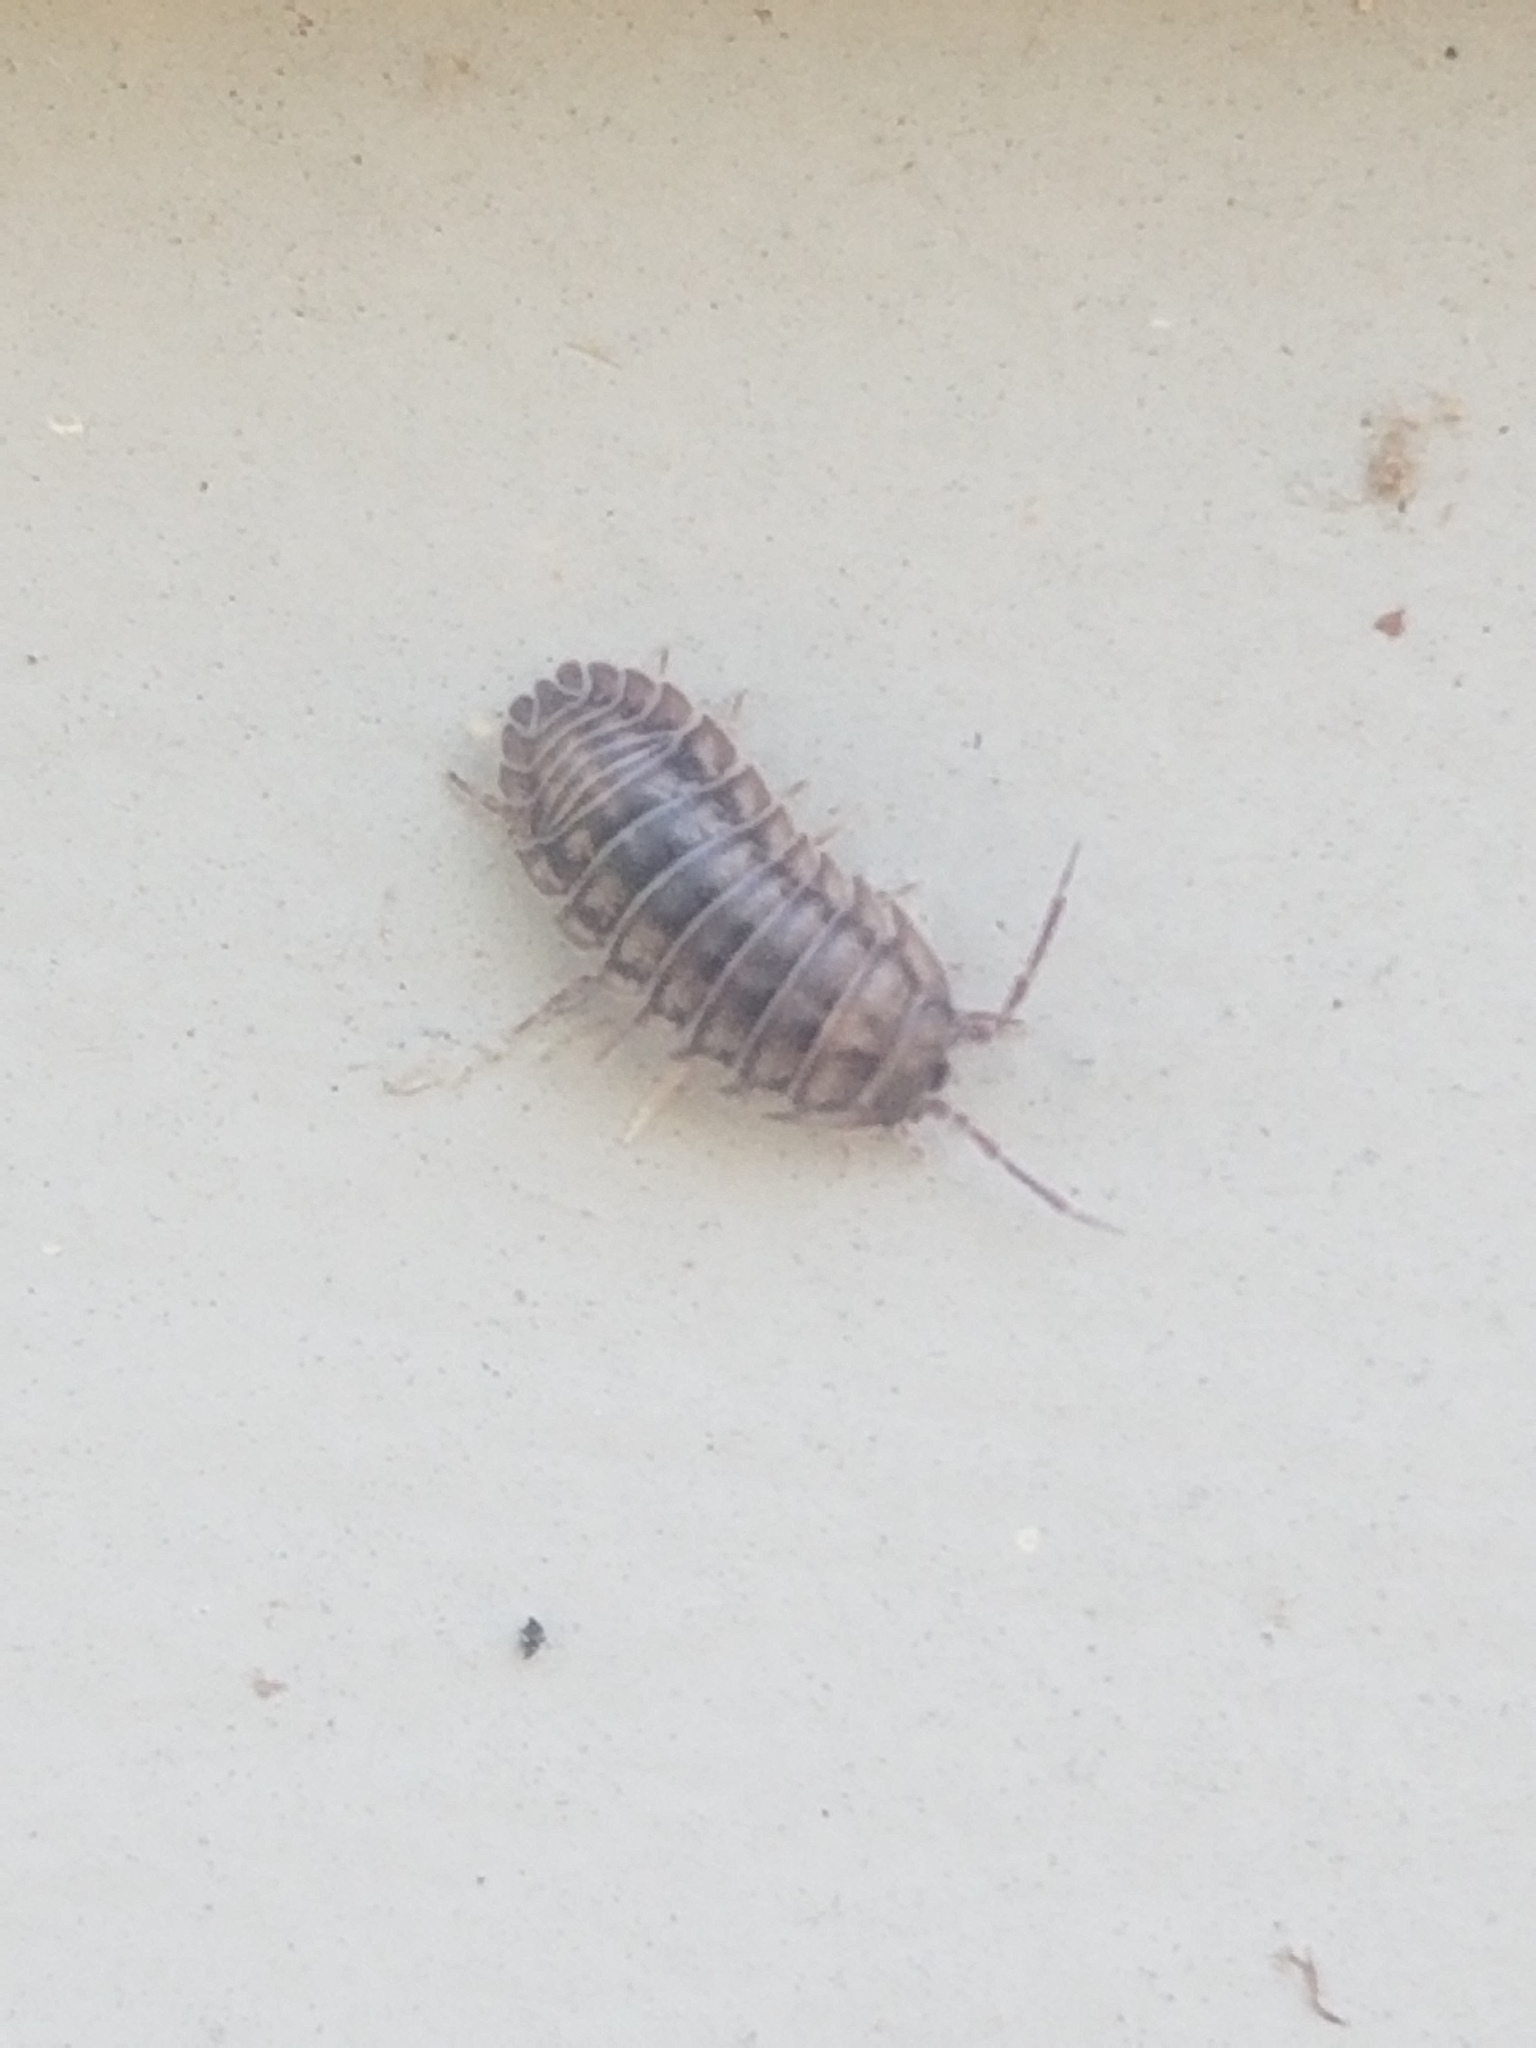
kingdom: Animalia
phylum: Arthropoda
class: Malacostraca
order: Isopoda
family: Armadillidiidae
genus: Armadillidium
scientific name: Armadillidium nasatum
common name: Isopod
